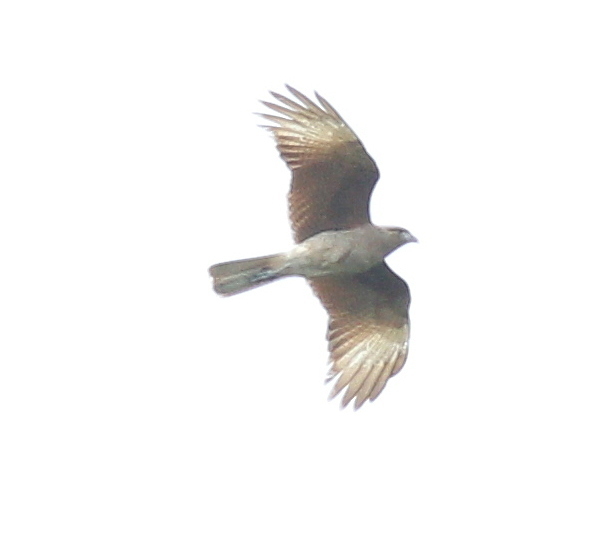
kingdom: Animalia
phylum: Chordata
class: Aves
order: Falconiformes
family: Falconidae
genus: Daptrius
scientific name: Daptrius
